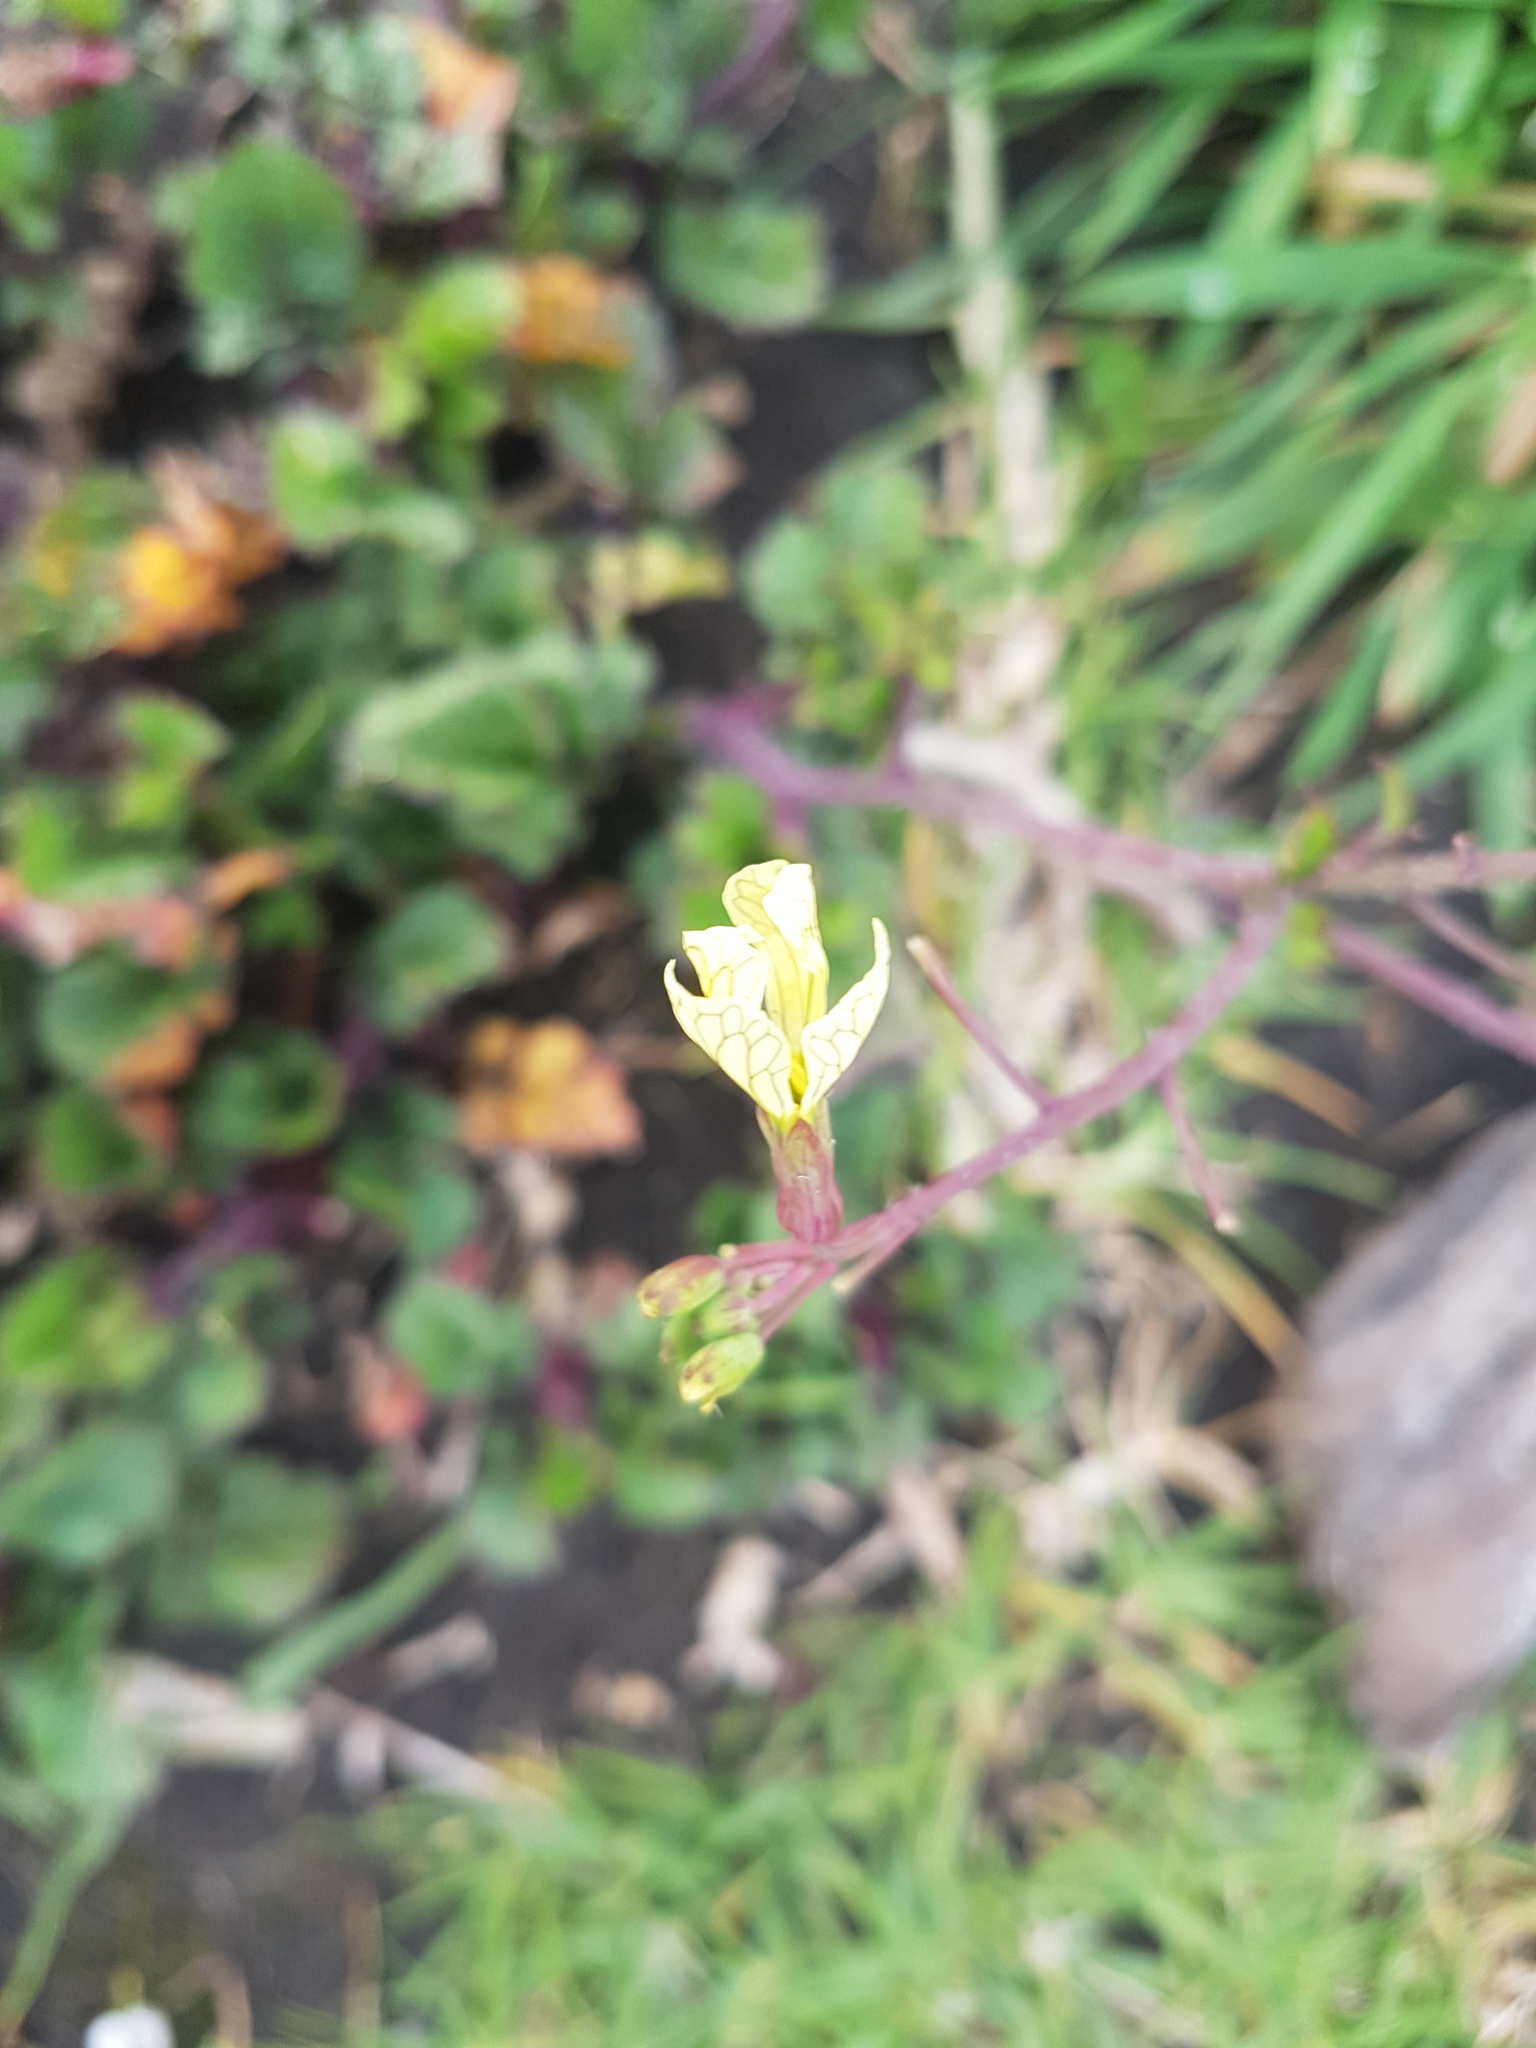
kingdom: Plantae
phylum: Tracheophyta
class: Magnoliopsida
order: Brassicales
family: Brassicaceae
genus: Raphanus
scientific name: Raphanus raphanistrum
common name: Wild radish
